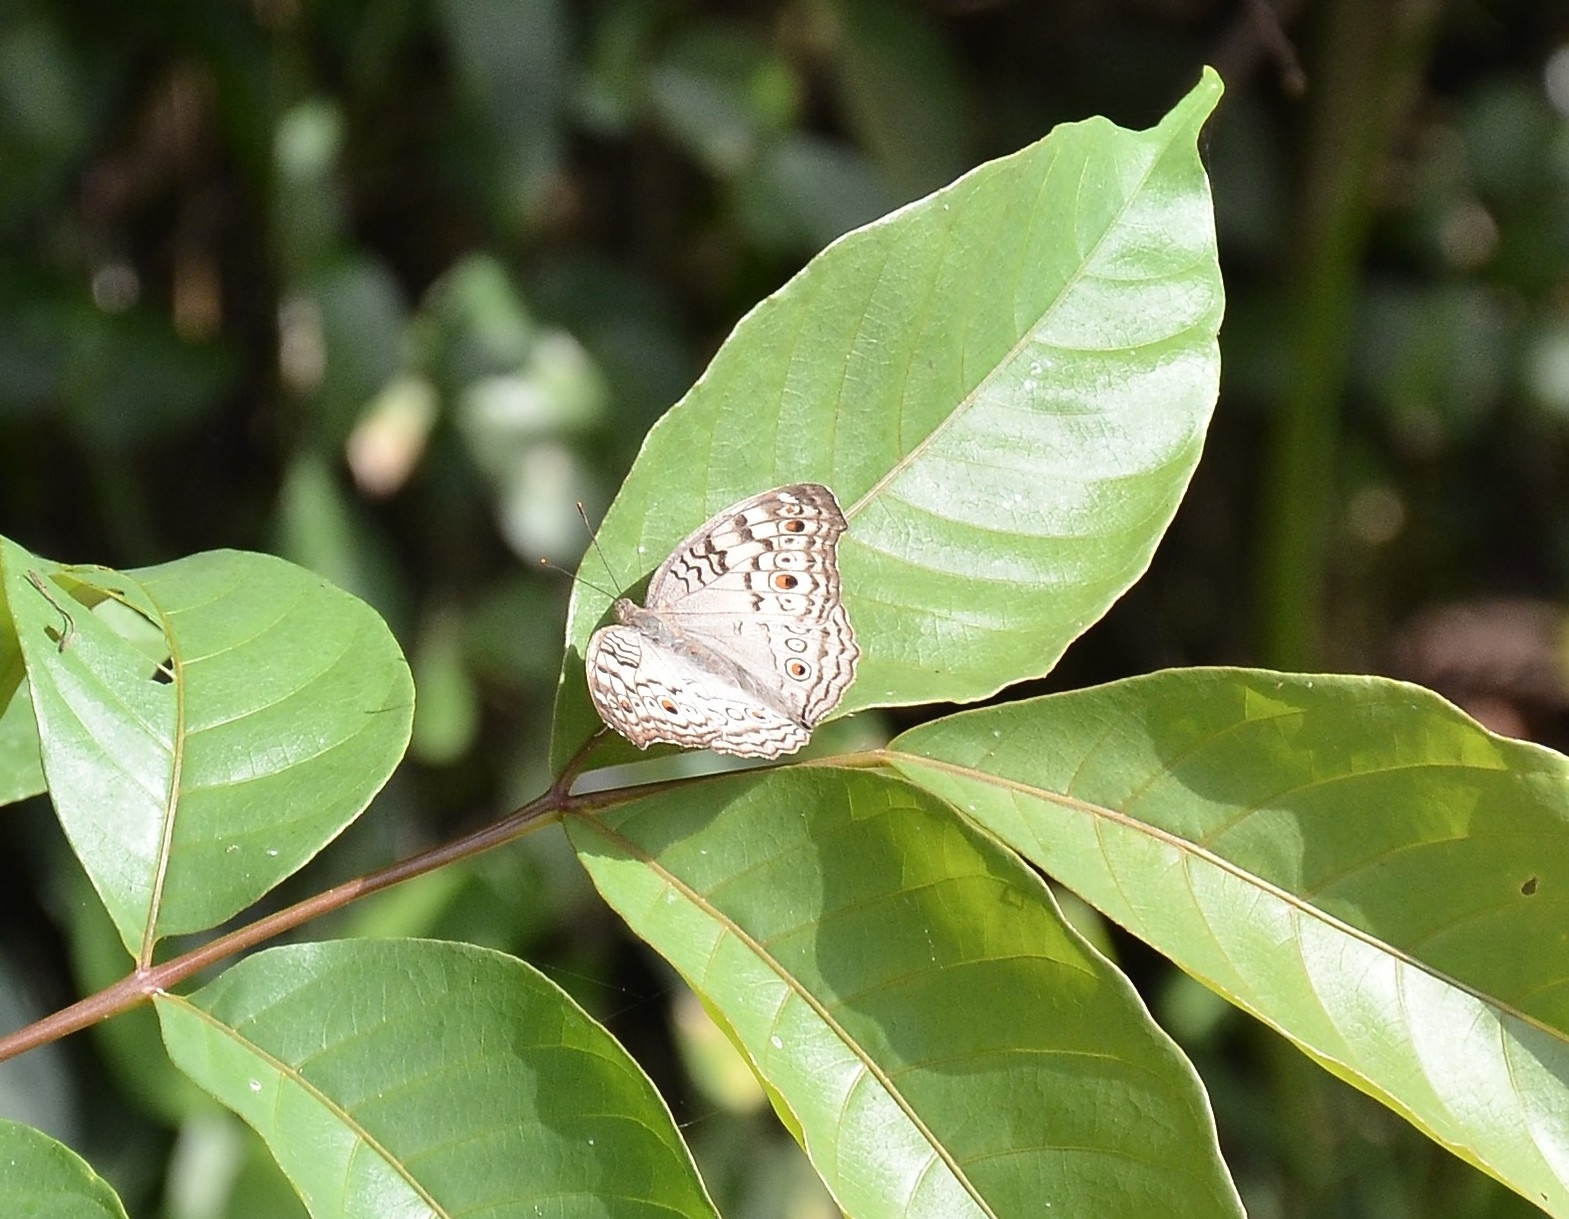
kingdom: Animalia
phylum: Arthropoda
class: Insecta
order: Lepidoptera
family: Nymphalidae
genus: Junonia
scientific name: Junonia atlites
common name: Grey pansy
